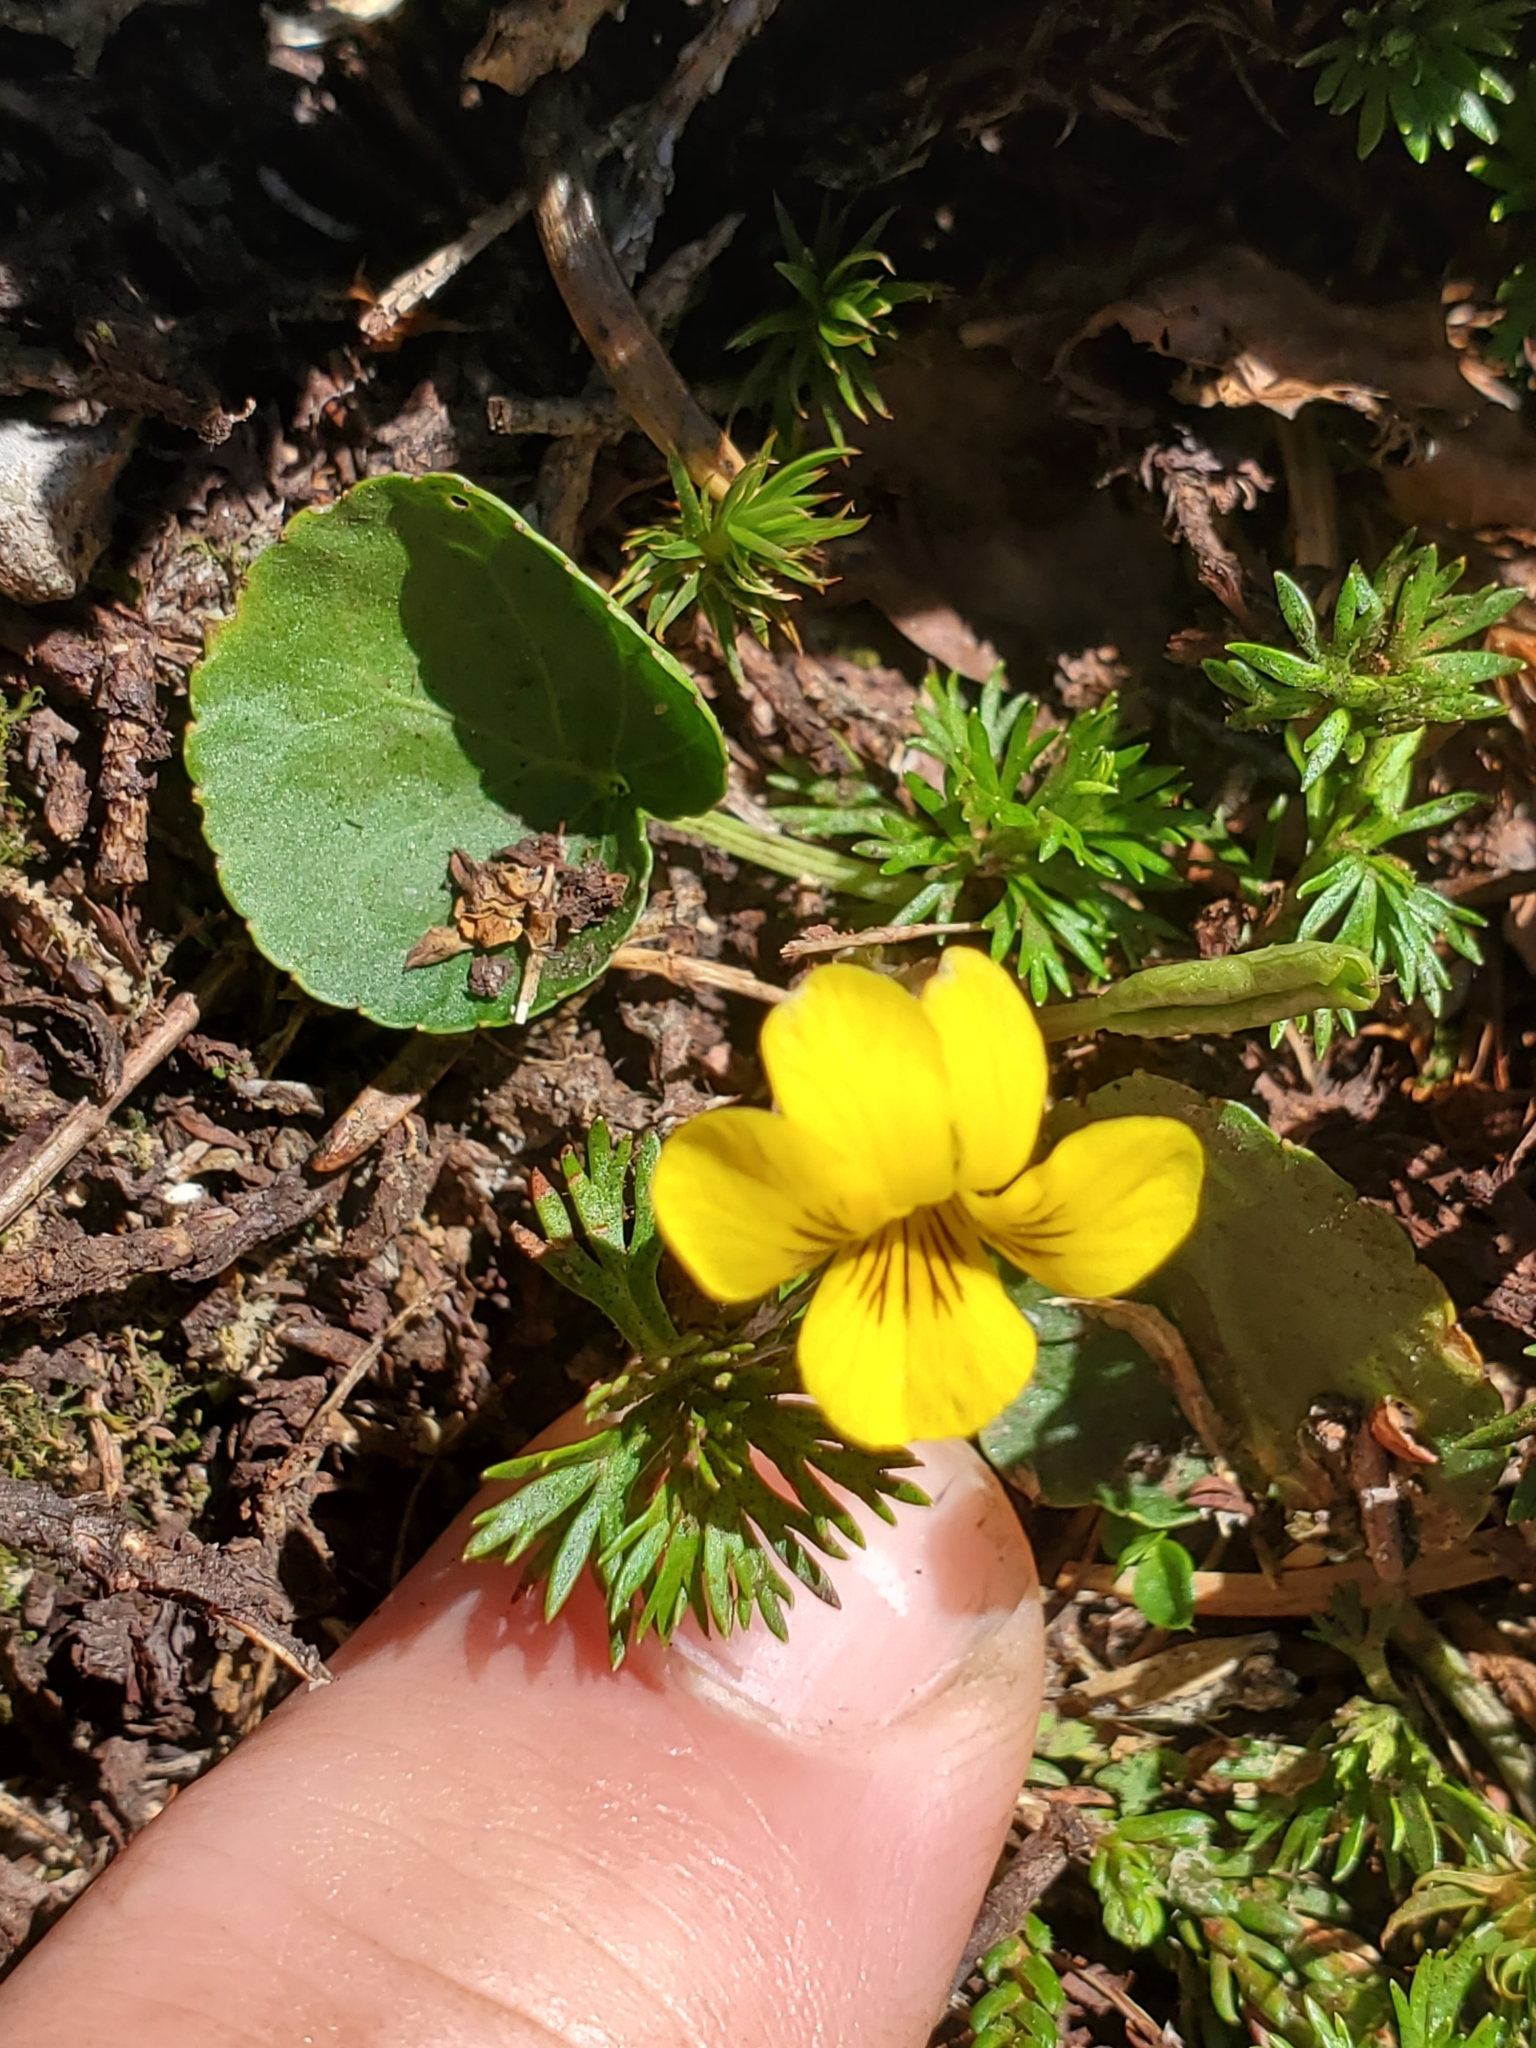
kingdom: Plantae
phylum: Tracheophyta
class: Magnoliopsida
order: Malpighiales
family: Violaceae
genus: Viola
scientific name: Viola orbiculata
